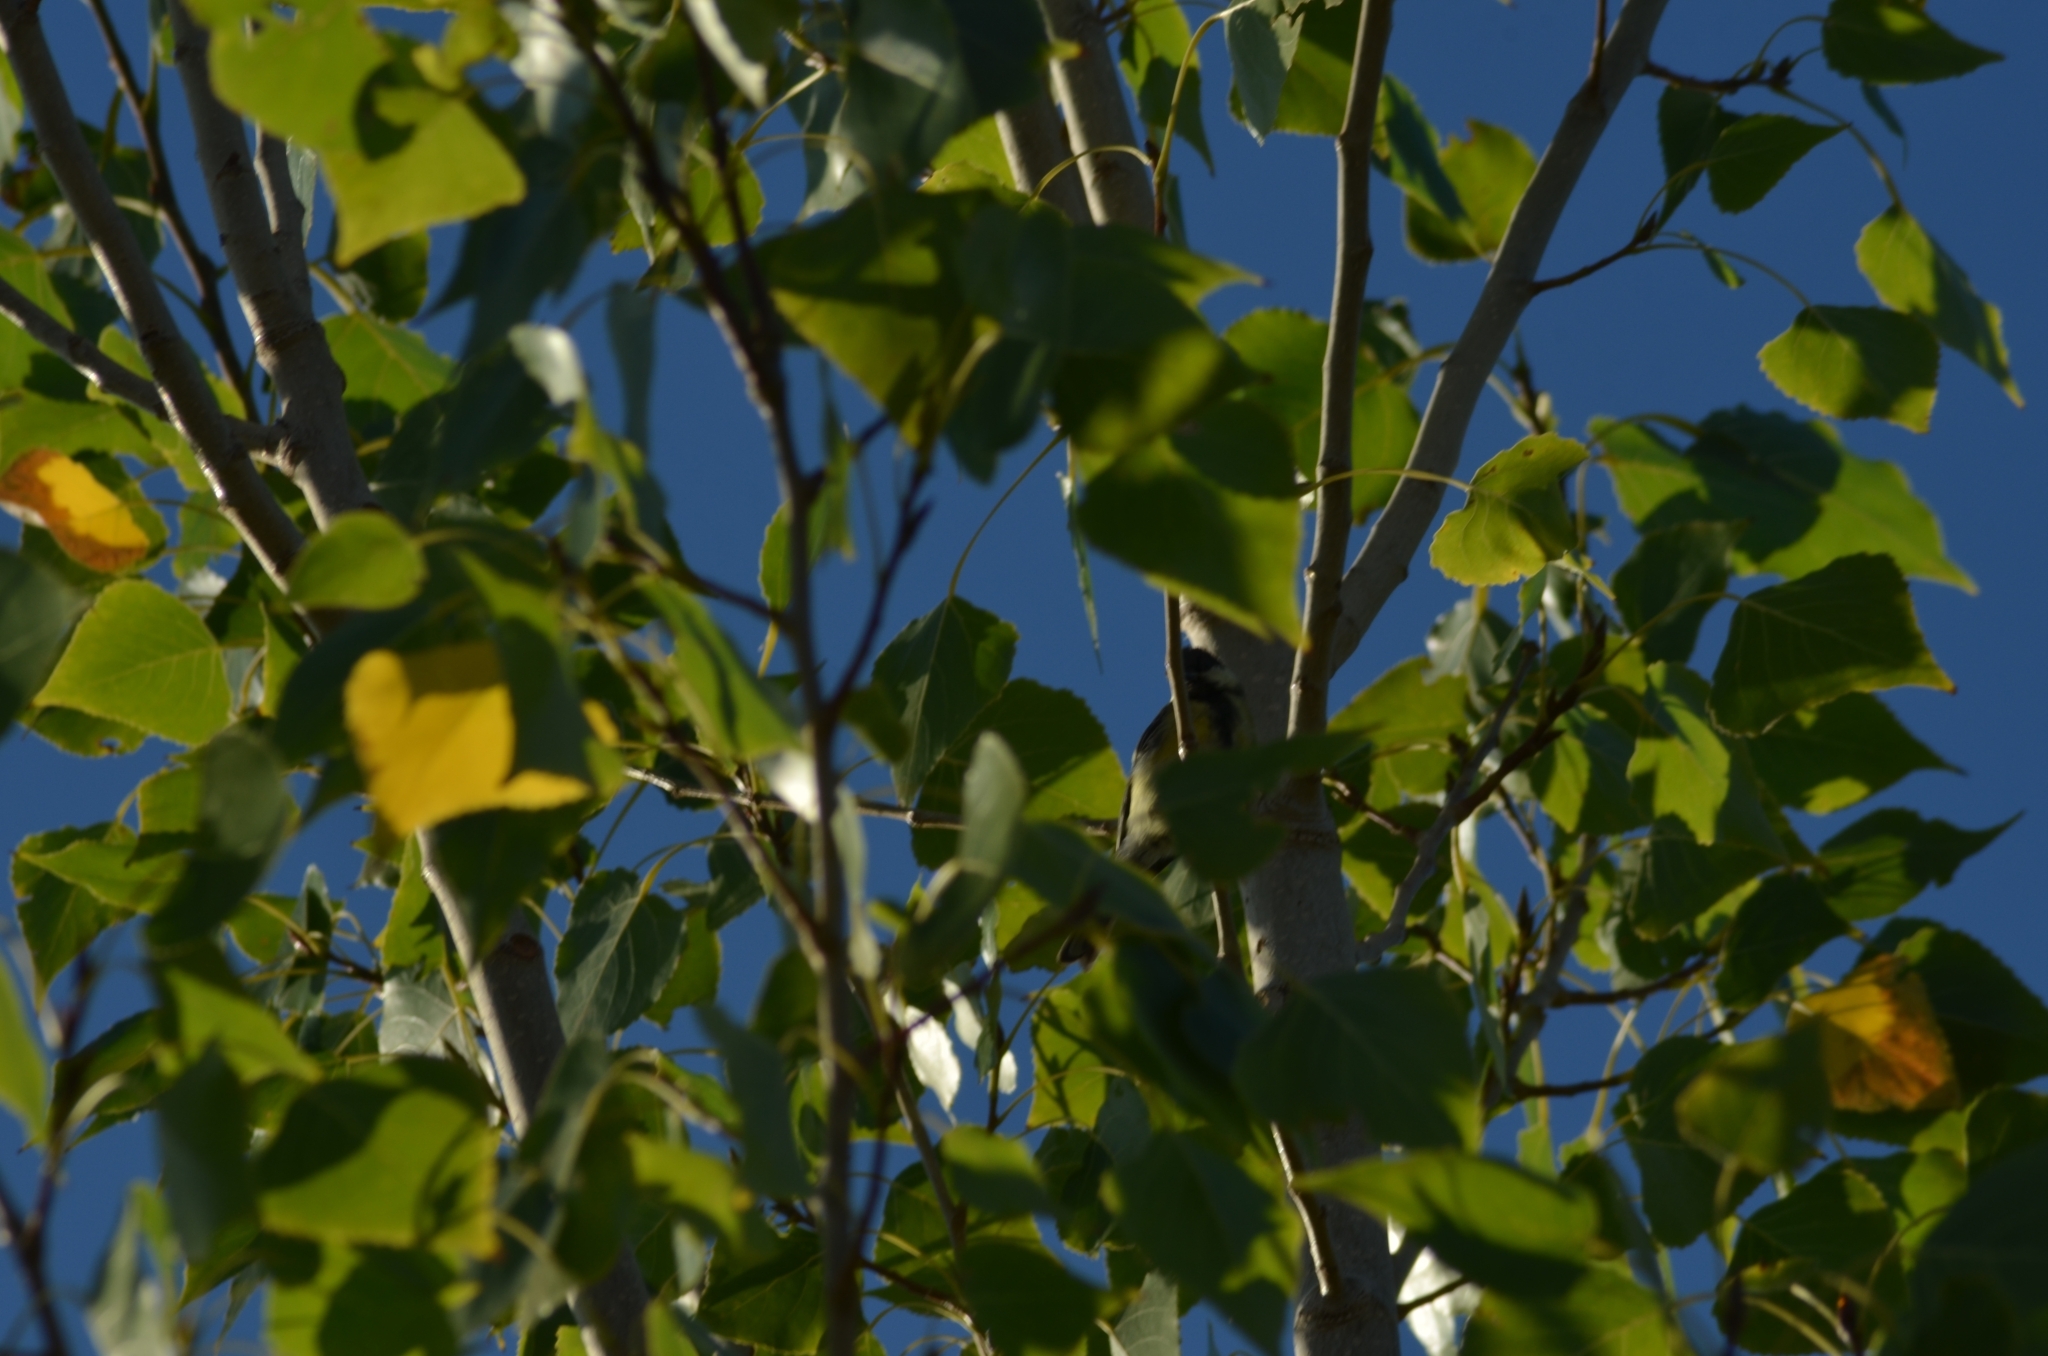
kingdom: Animalia
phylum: Chordata
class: Aves
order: Passeriformes
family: Paridae
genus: Parus
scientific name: Parus major
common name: Great tit
